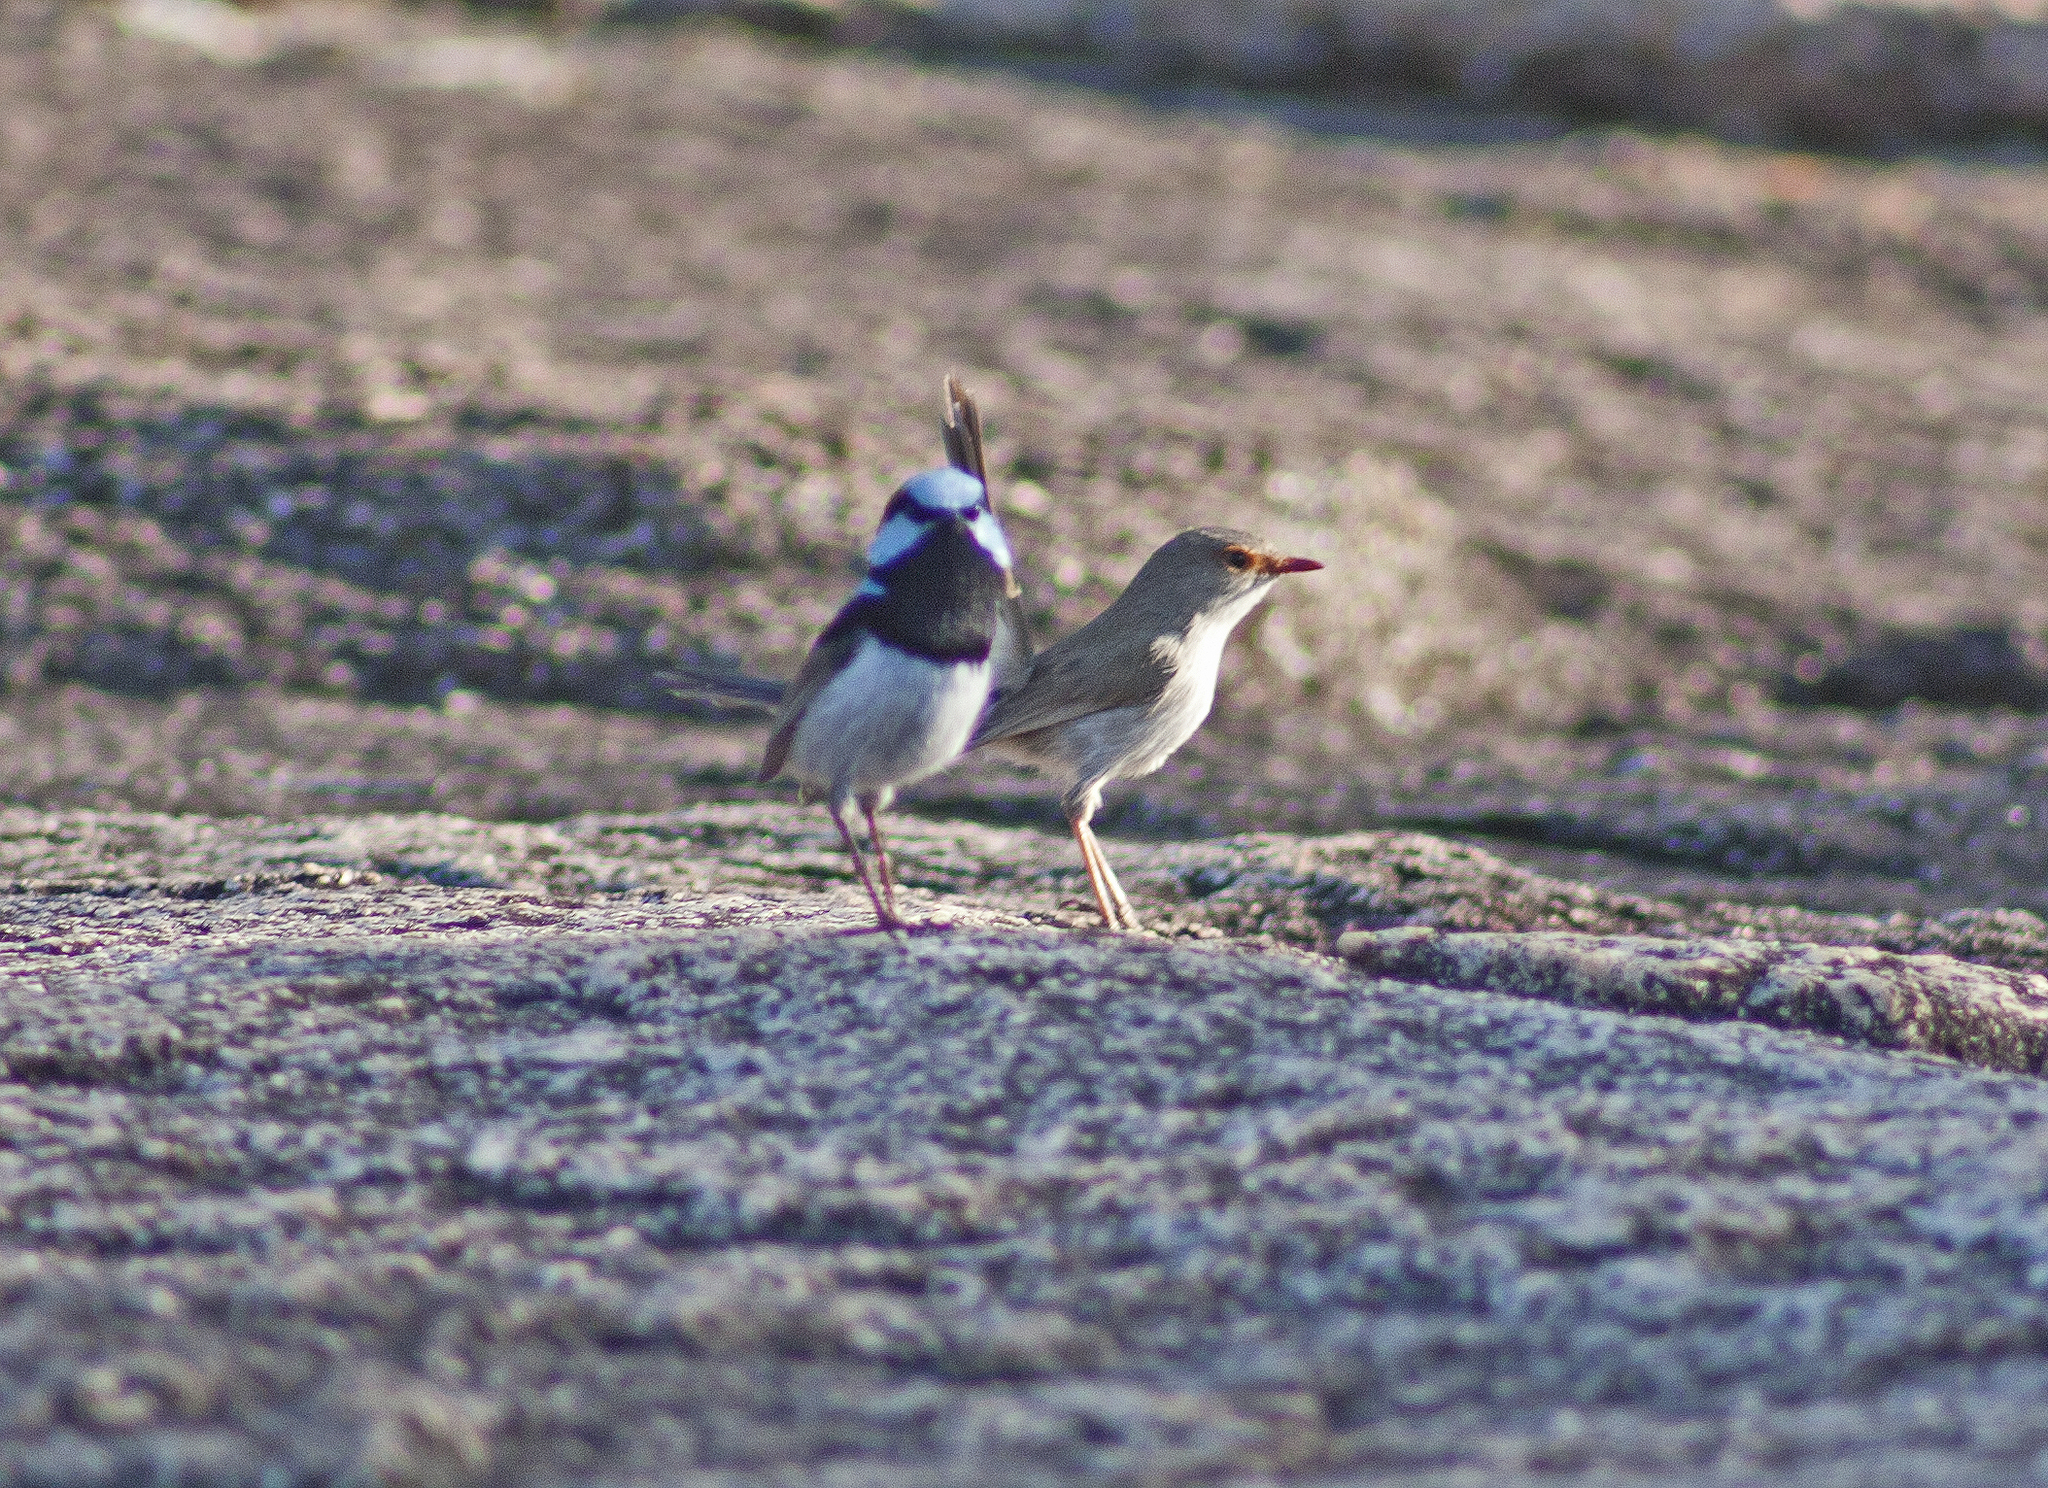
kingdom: Animalia
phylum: Chordata
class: Aves
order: Passeriformes
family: Maluridae
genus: Malurus
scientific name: Malurus cyaneus
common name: Superb fairywren
